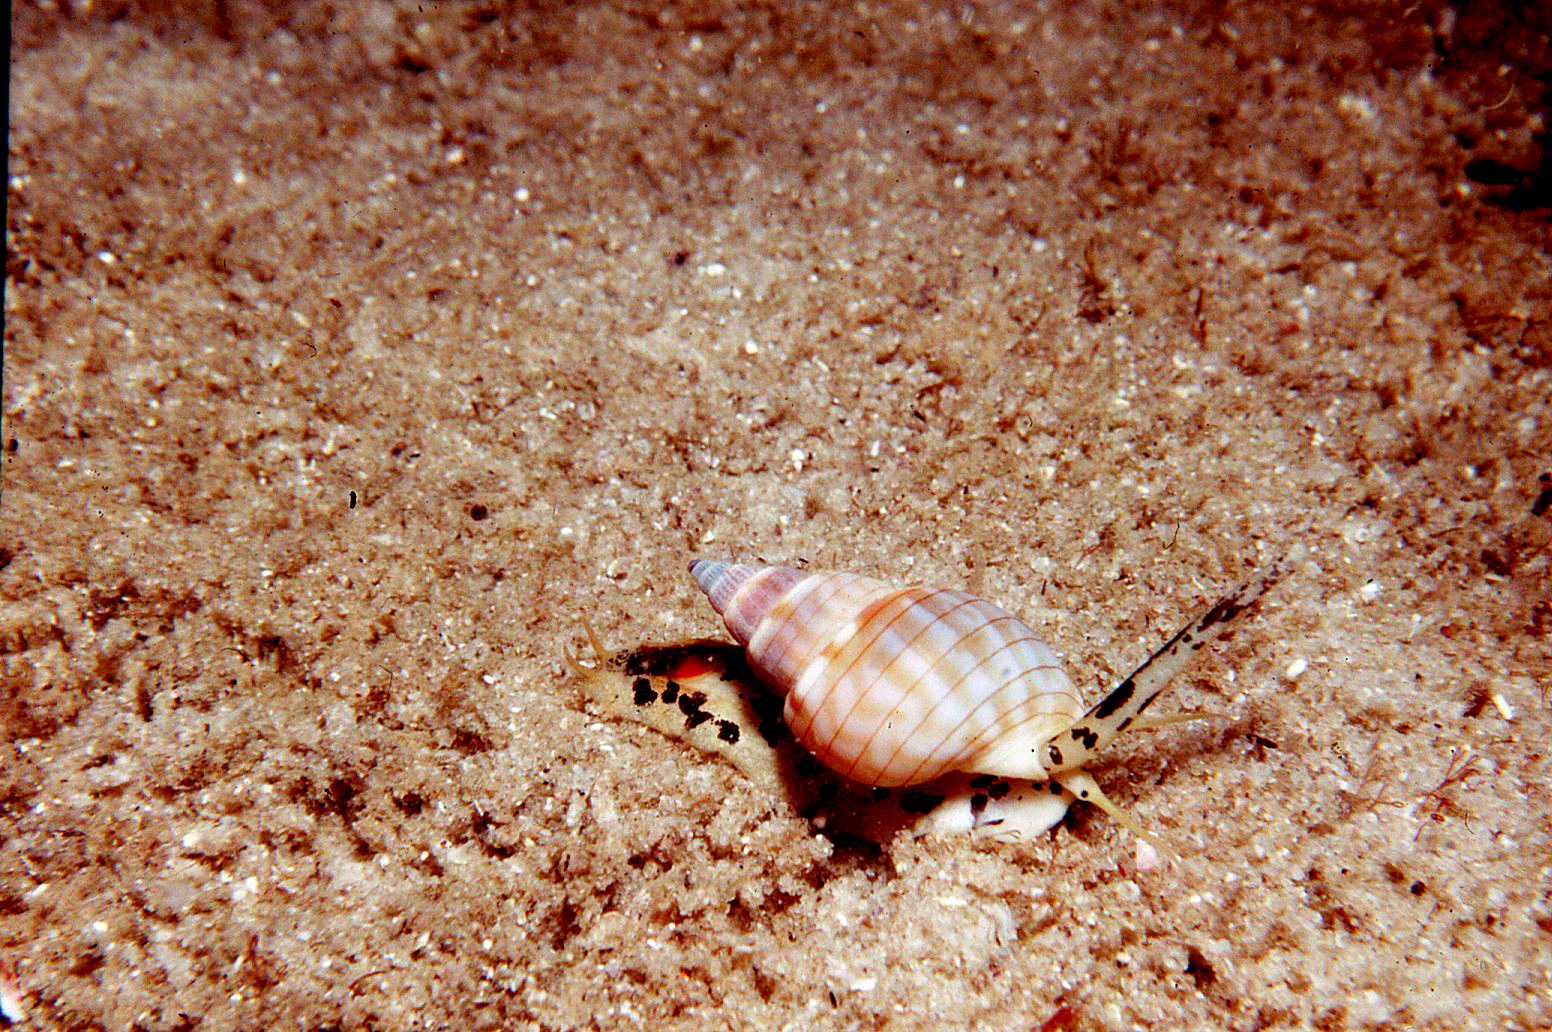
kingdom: Animalia
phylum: Mollusca
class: Gastropoda
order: Neogastropoda
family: Nassariidae
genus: Nassarius
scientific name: Nassarius particeps
